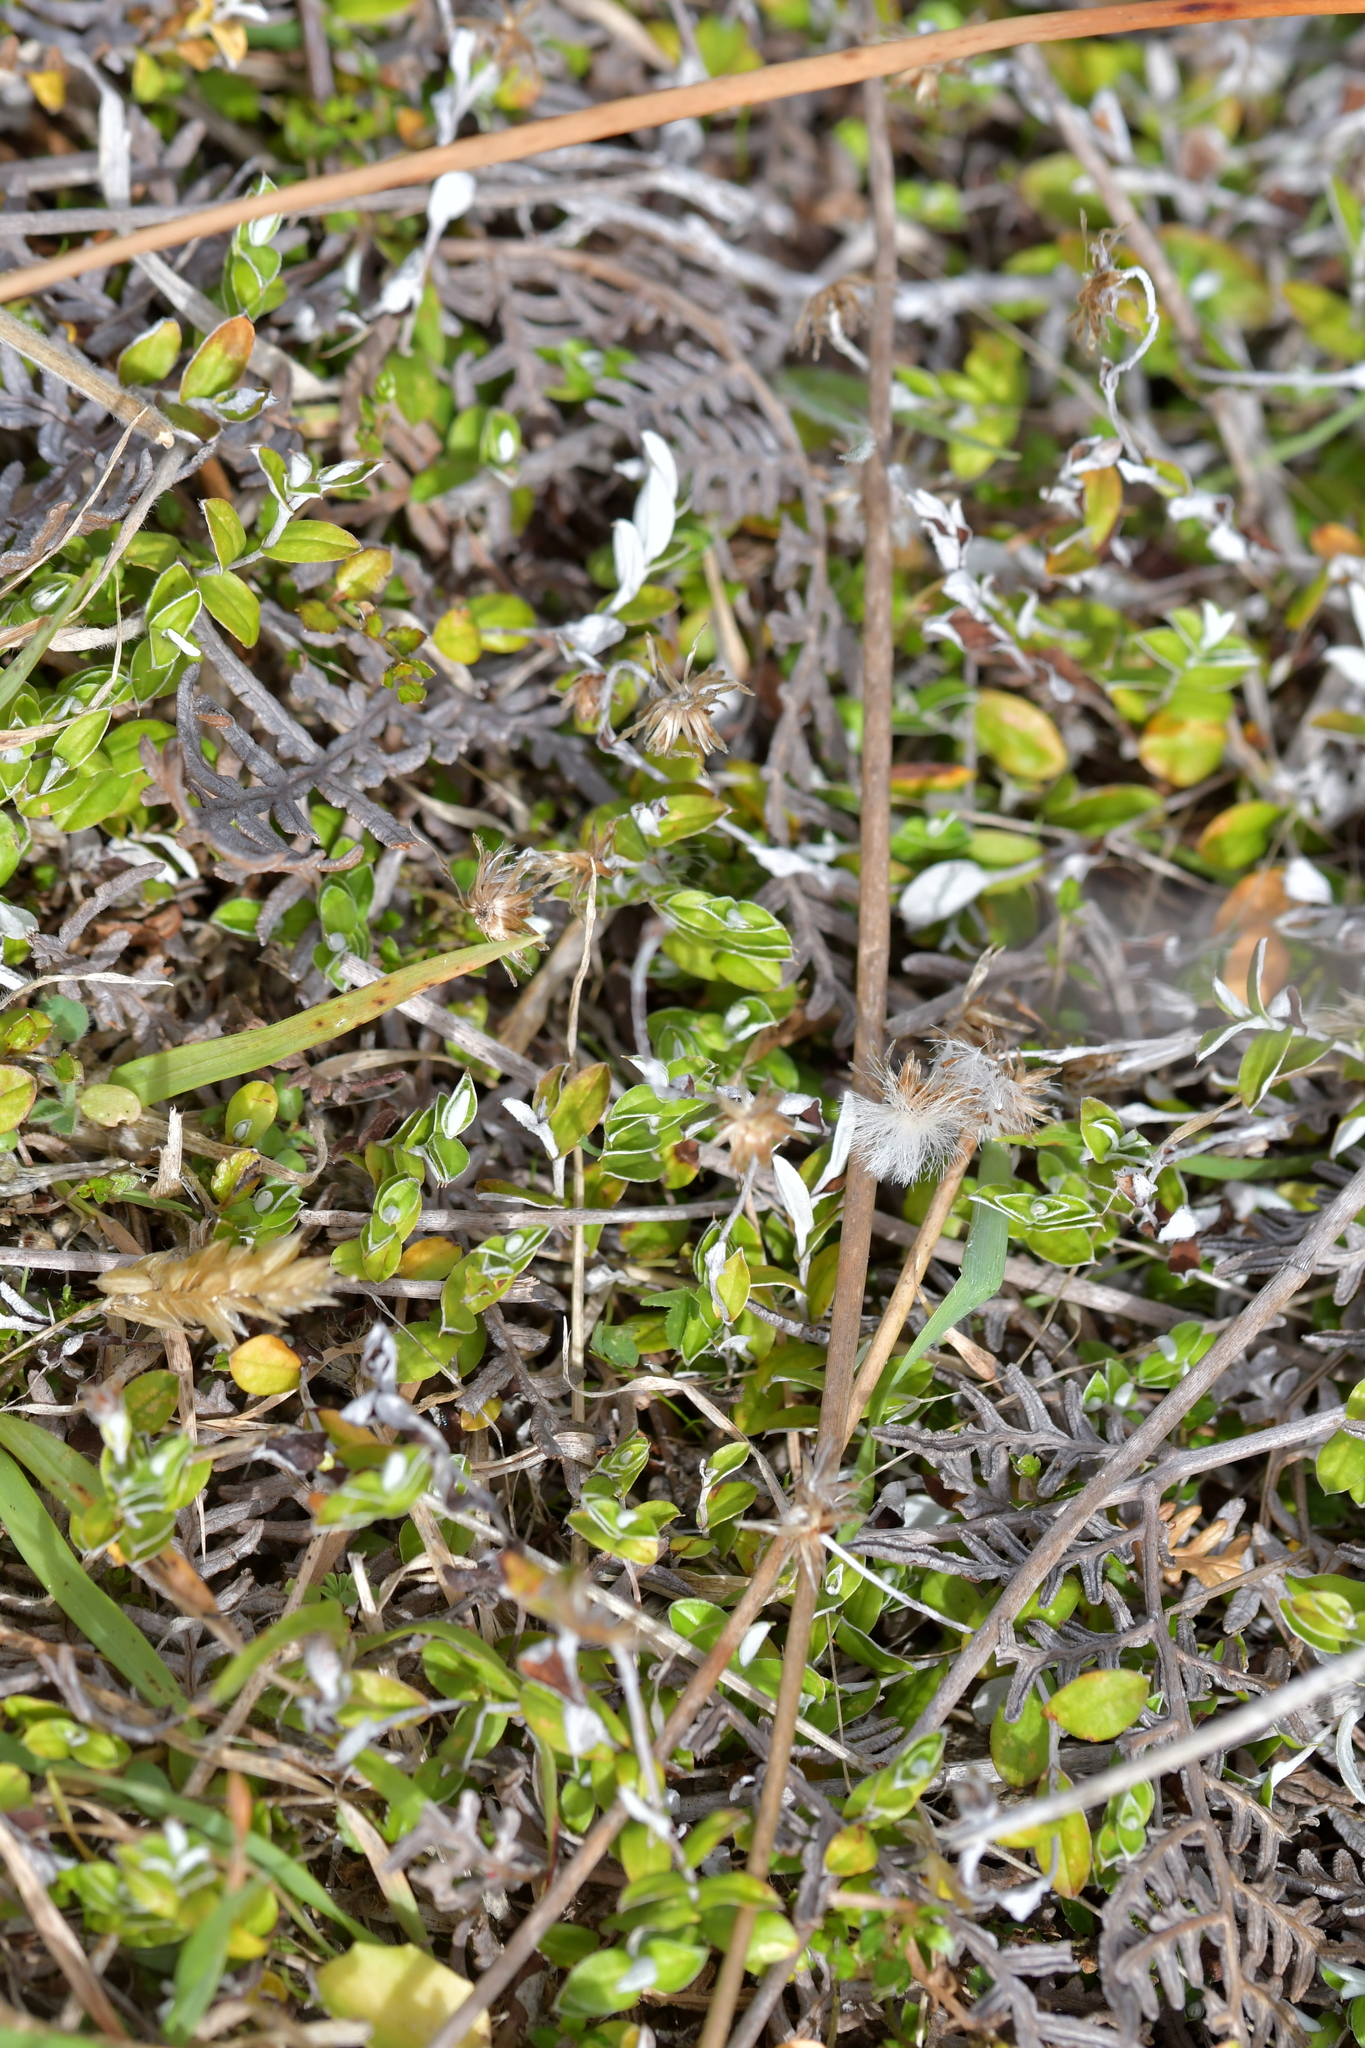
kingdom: Plantae
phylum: Tracheophyta
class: Magnoliopsida
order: Asterales
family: Asteraceae
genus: Helichrysum
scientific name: Helichrysum filicaule
